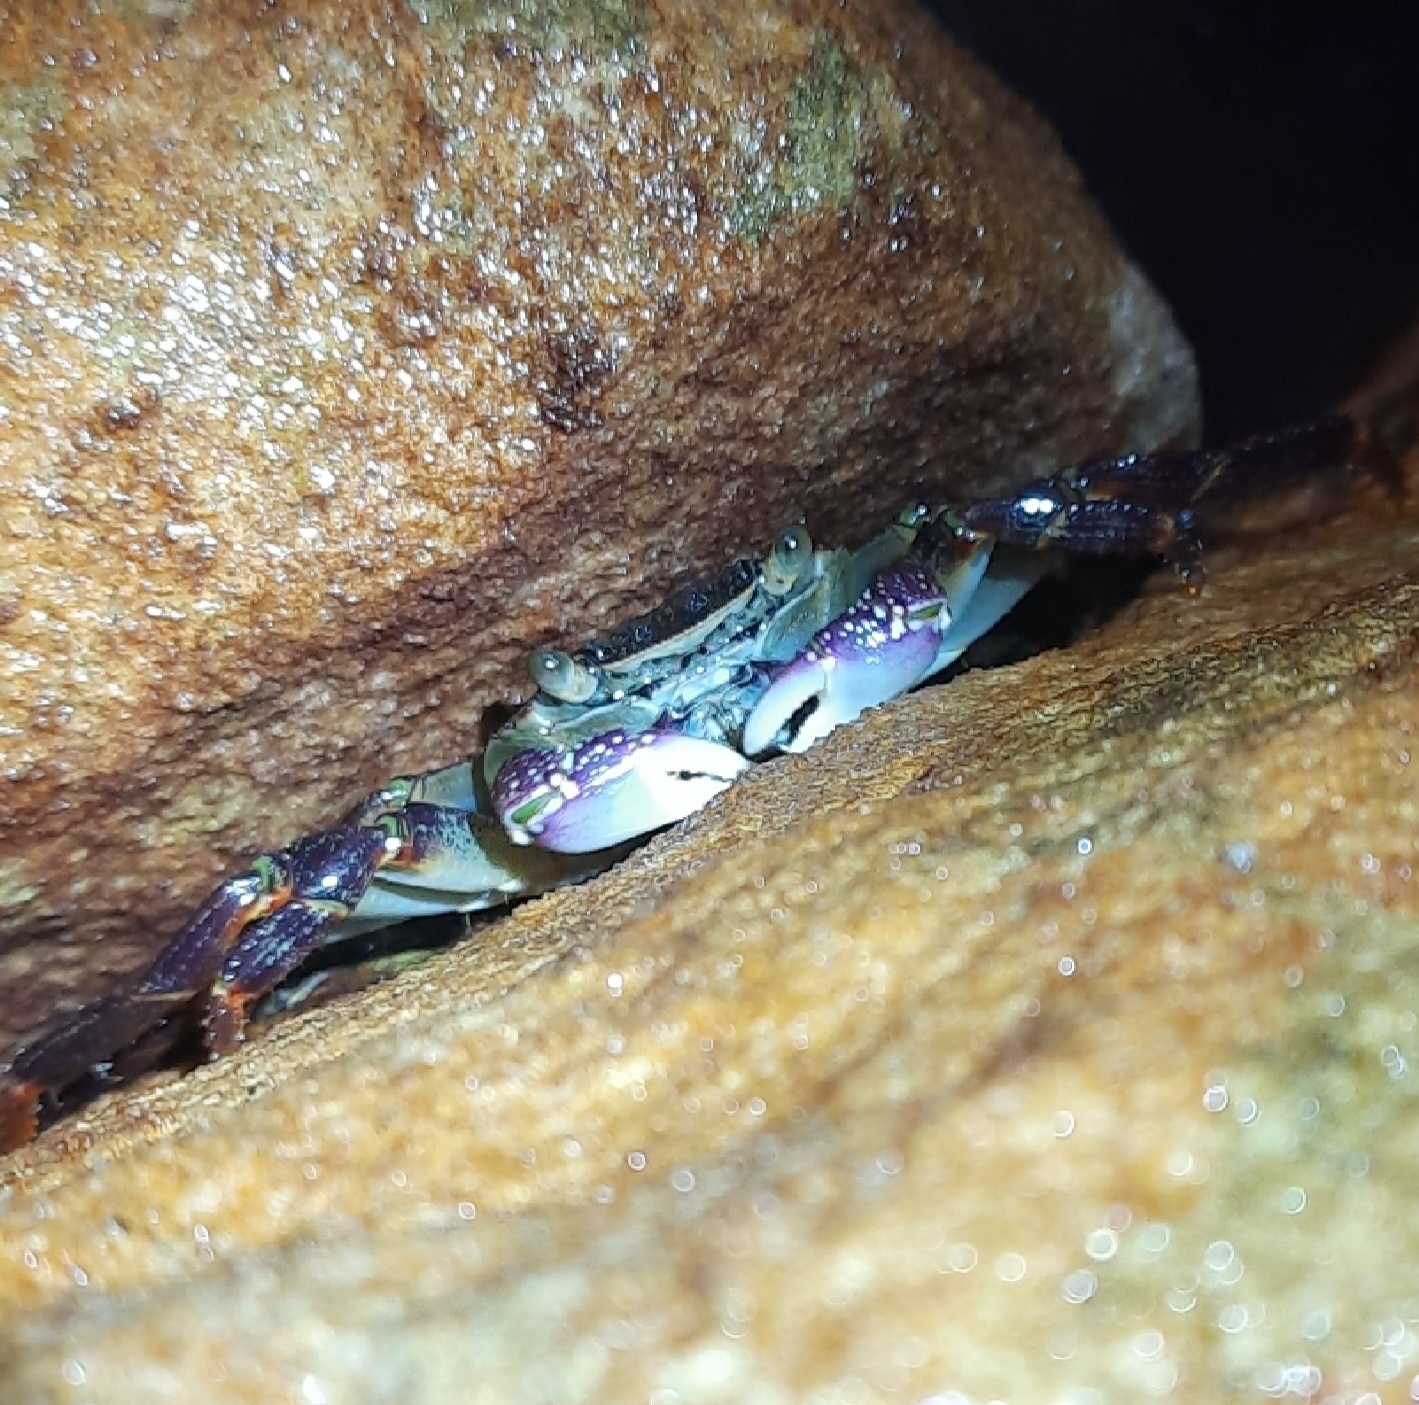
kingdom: Animalia
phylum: Arthropoda
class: Malacostraca
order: Decapoda
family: Grapsidae
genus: Leptograpsus
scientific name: Leptograpsus variegatus
